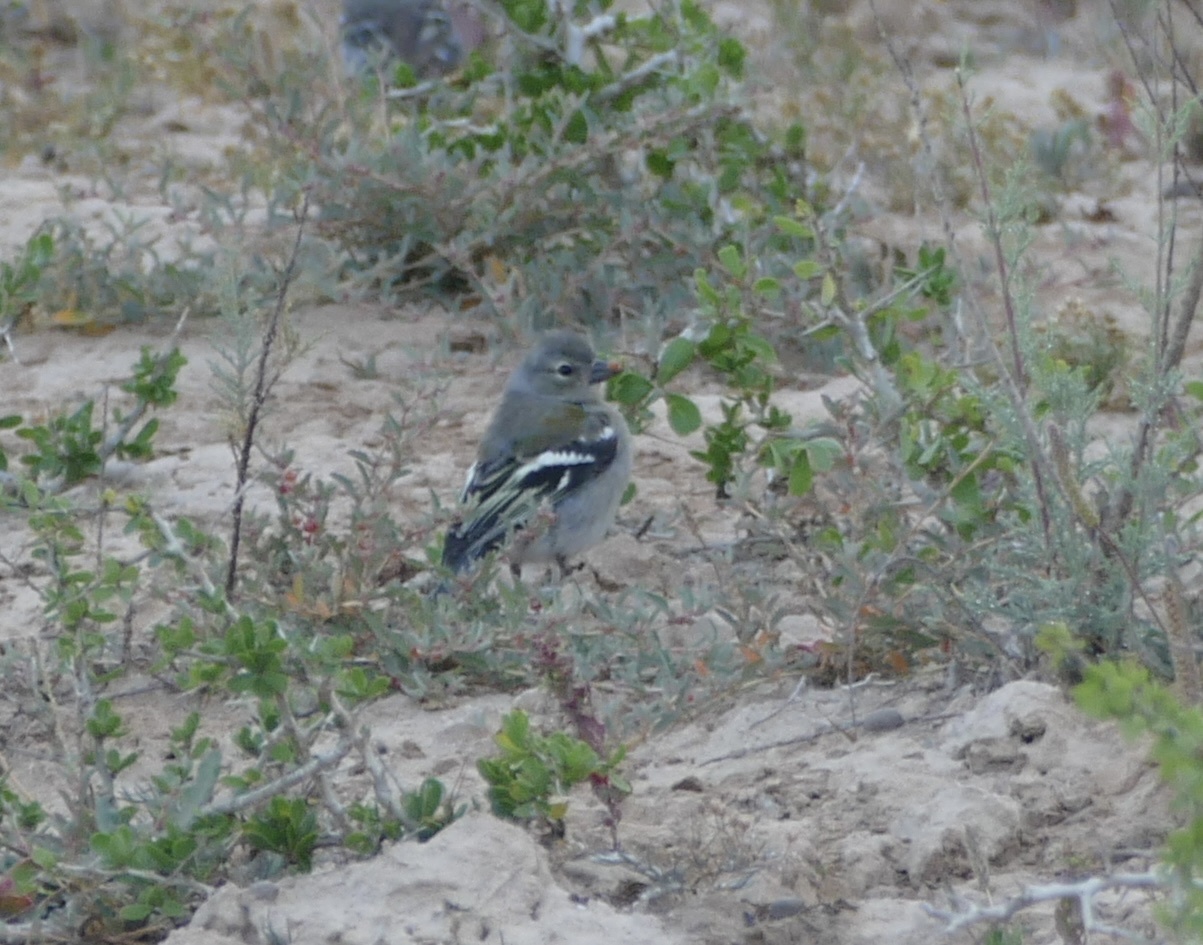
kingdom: Animalia
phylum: Chordata
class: Aves
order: Passeriformes
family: Fringillidae
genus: Fringilla
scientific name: Fringilla spodiogenys
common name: African chaffinch
